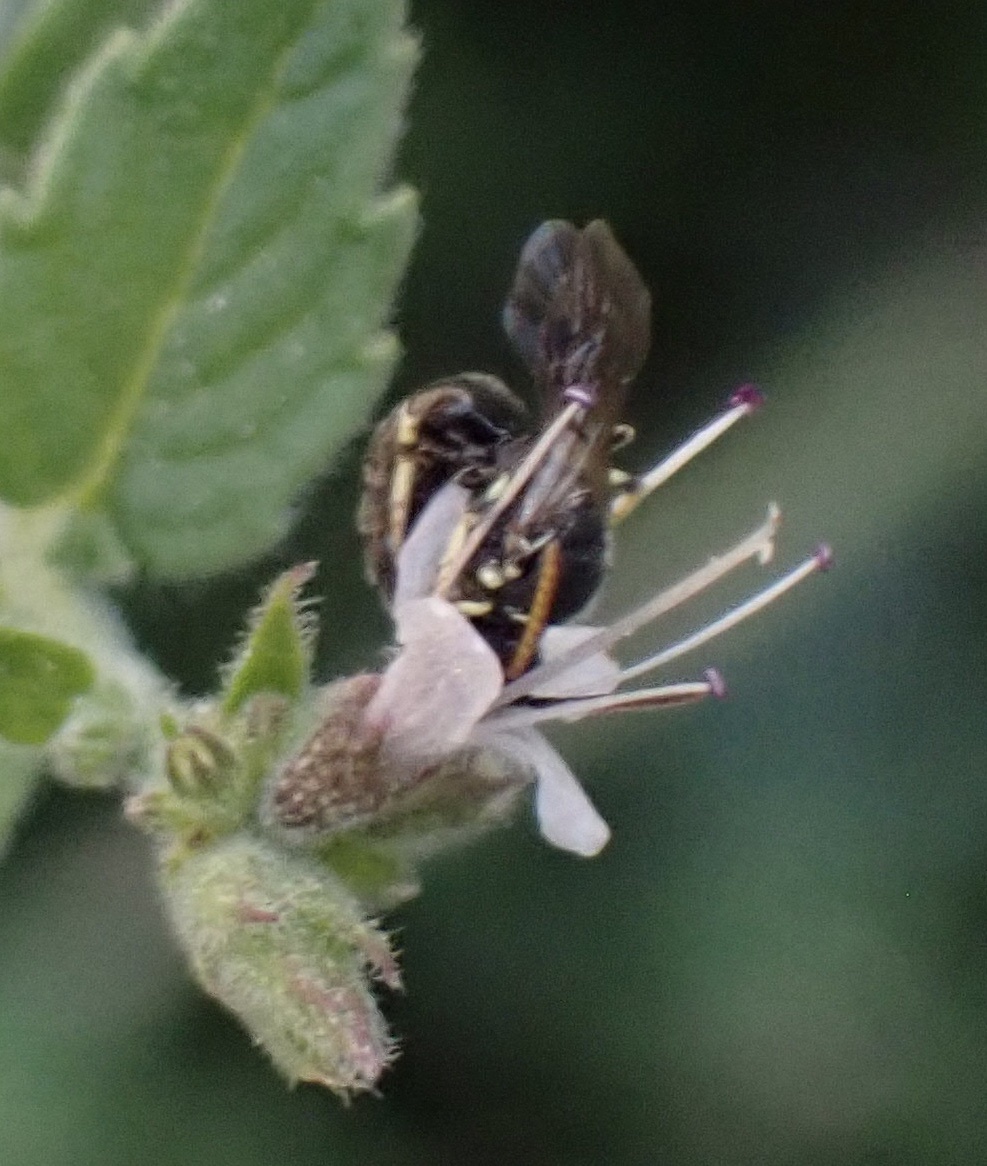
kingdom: Animalia
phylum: Arthropoda
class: Insecta
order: Hymenoptera
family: Colletidae
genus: Hylaeus
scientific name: Hylaeus hyalinatus
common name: Hyaline masked bee
